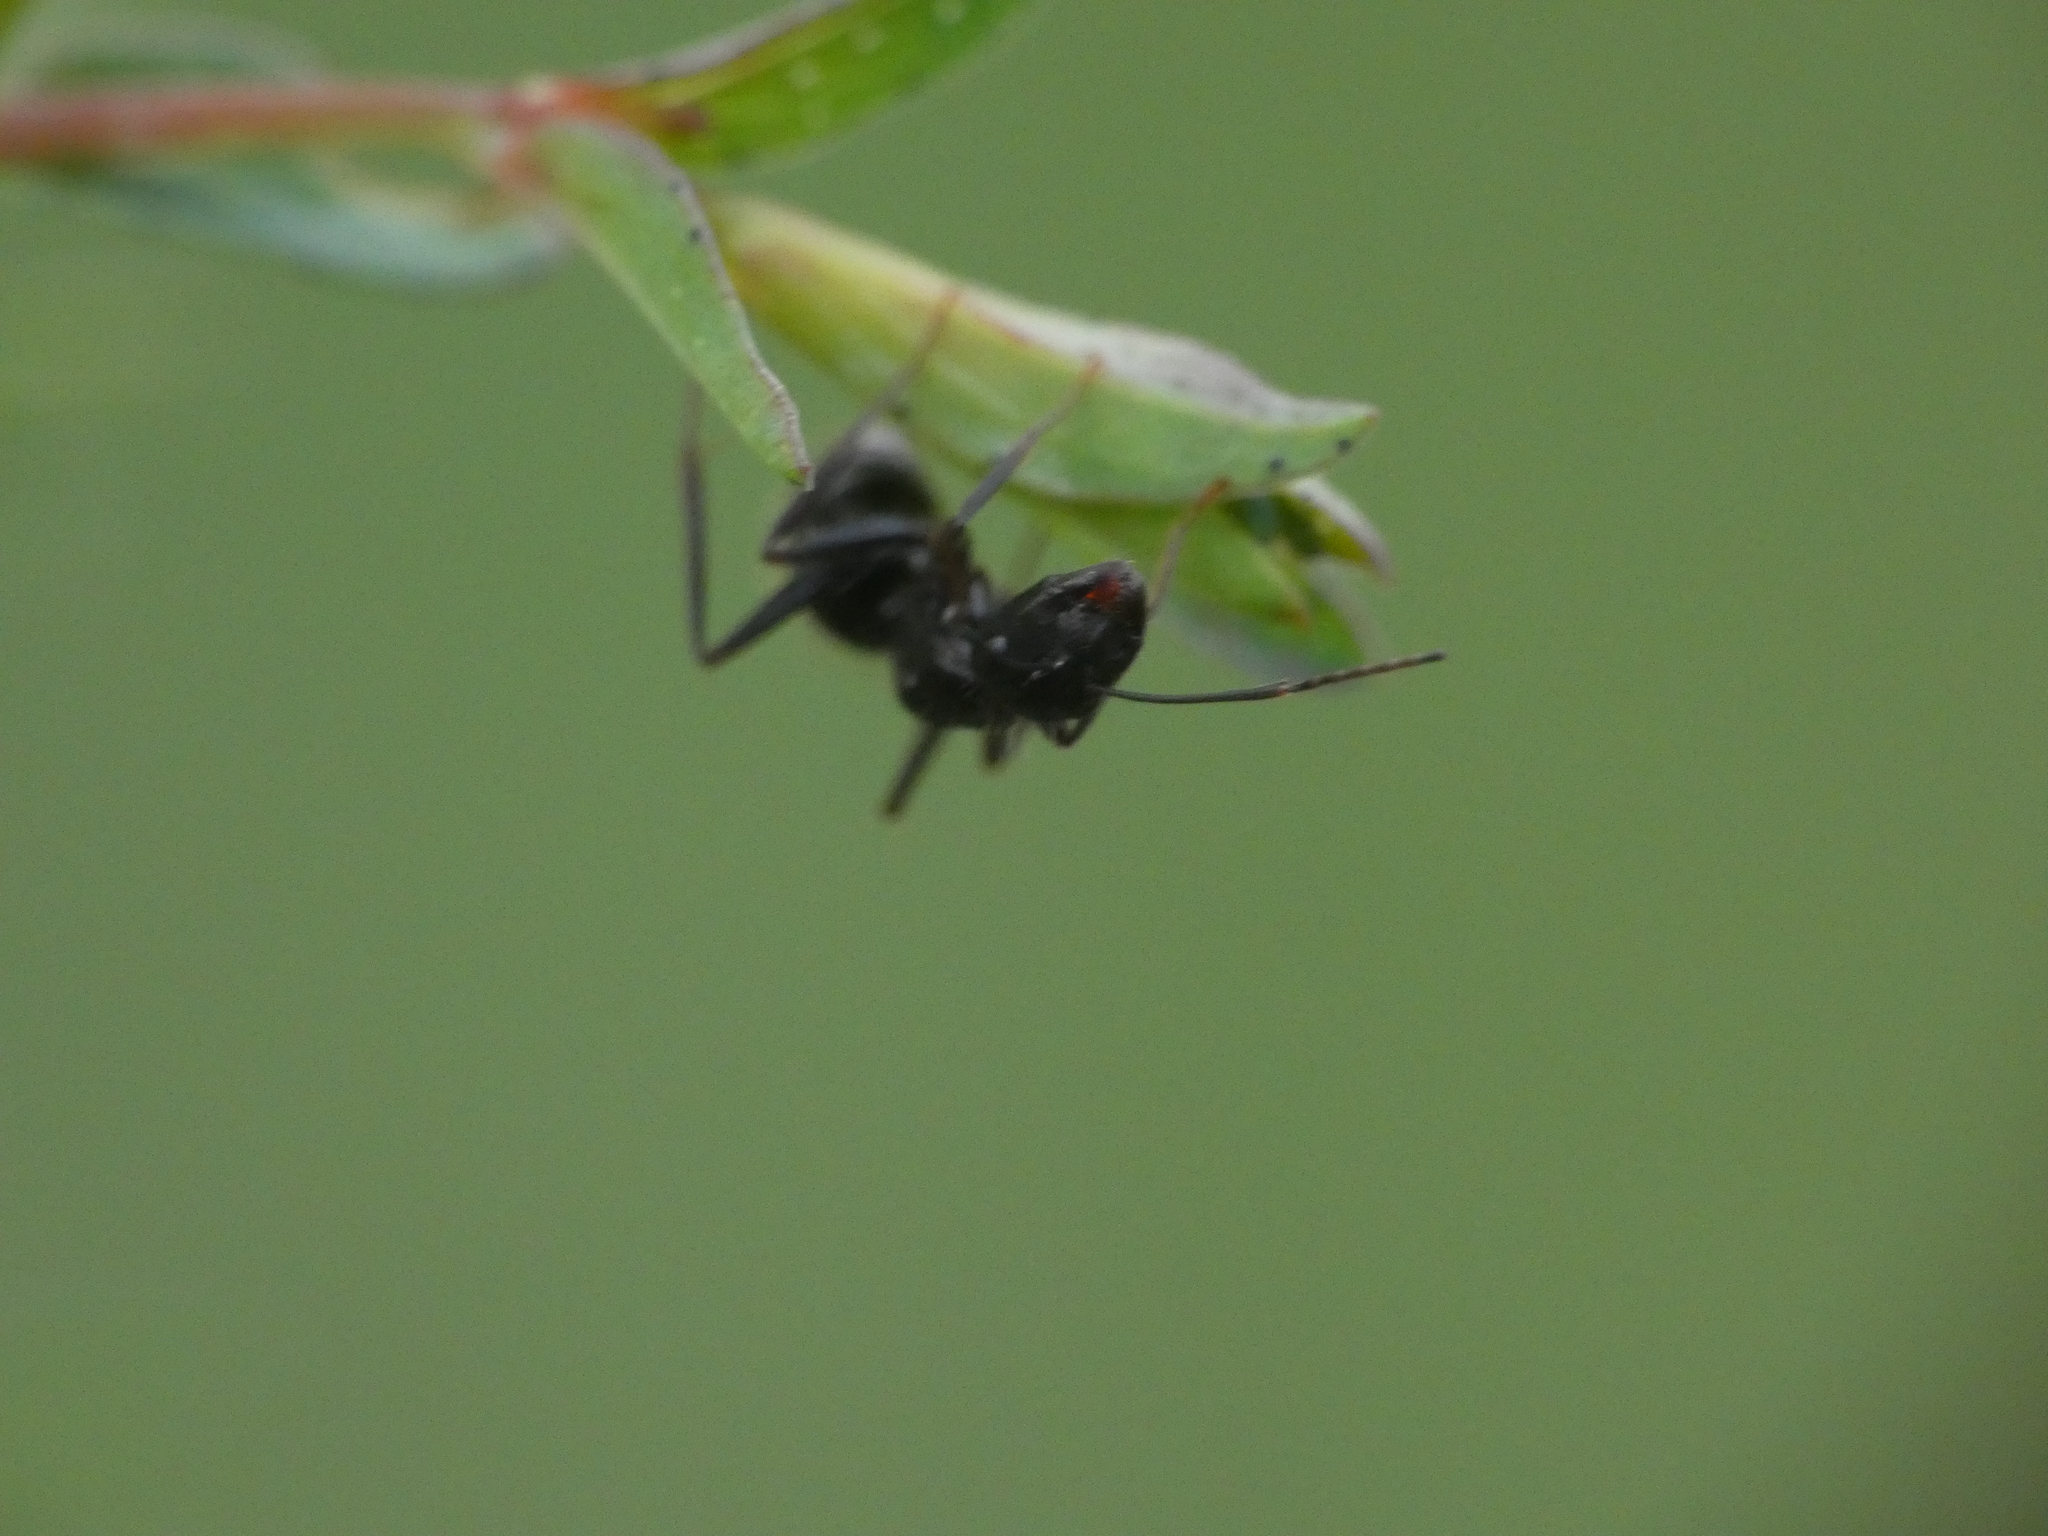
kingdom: Animalia
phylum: Arthropoda
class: Insecta
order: Hymenoptera
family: Formicidae
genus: Camponotus
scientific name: Camponotus aethiops
